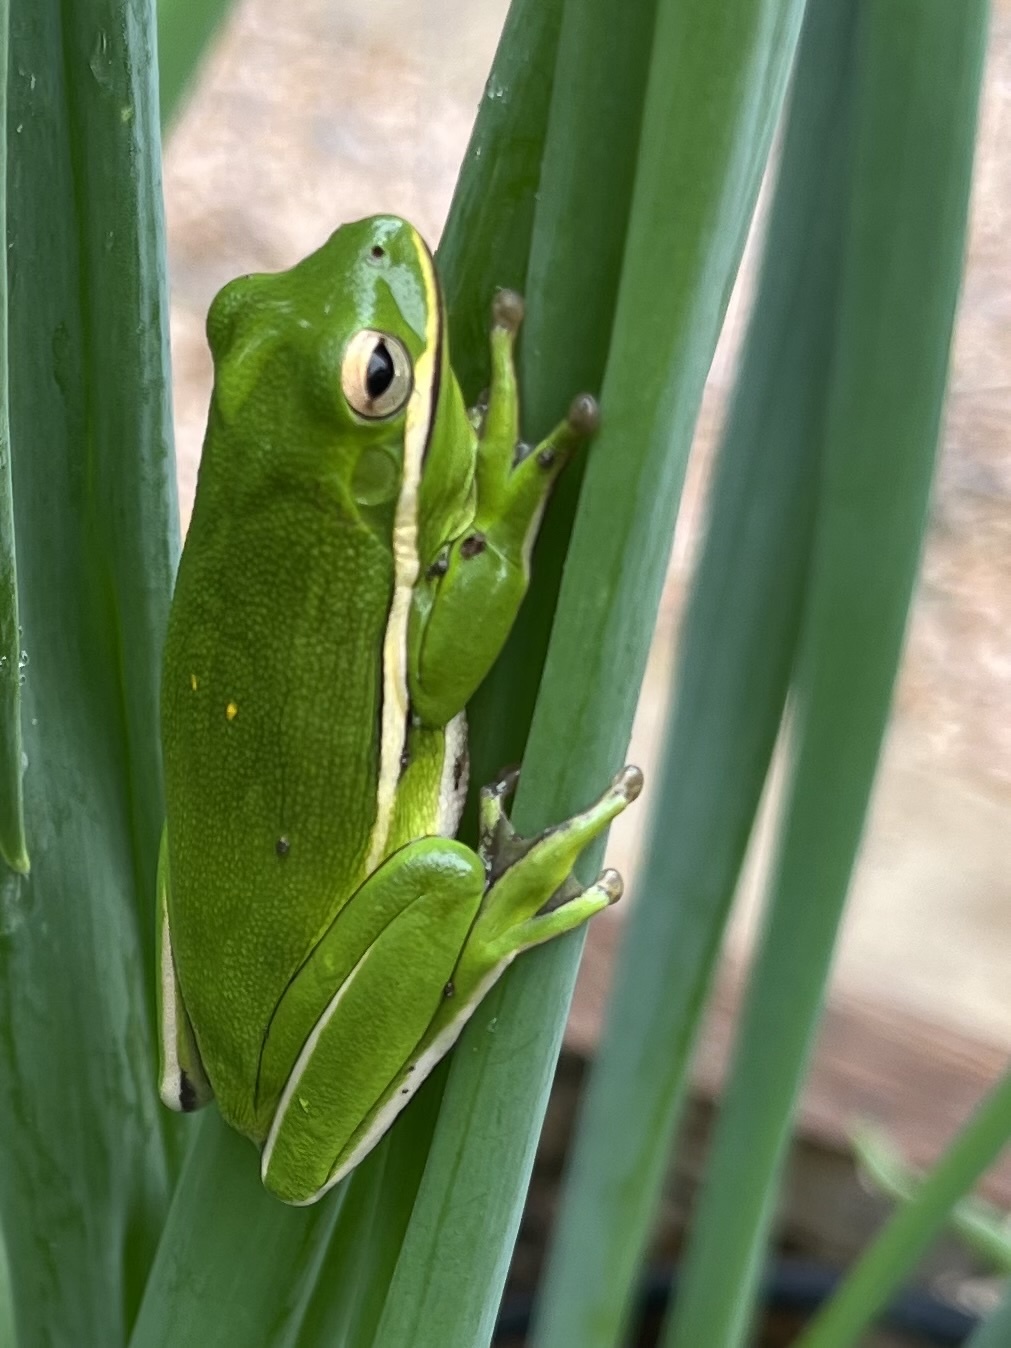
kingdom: Animalia
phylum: Chordata
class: Amphibia
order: Anura
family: Hylidae
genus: Dryophytes
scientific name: Dryophytes cinereus
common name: Green treefrog
